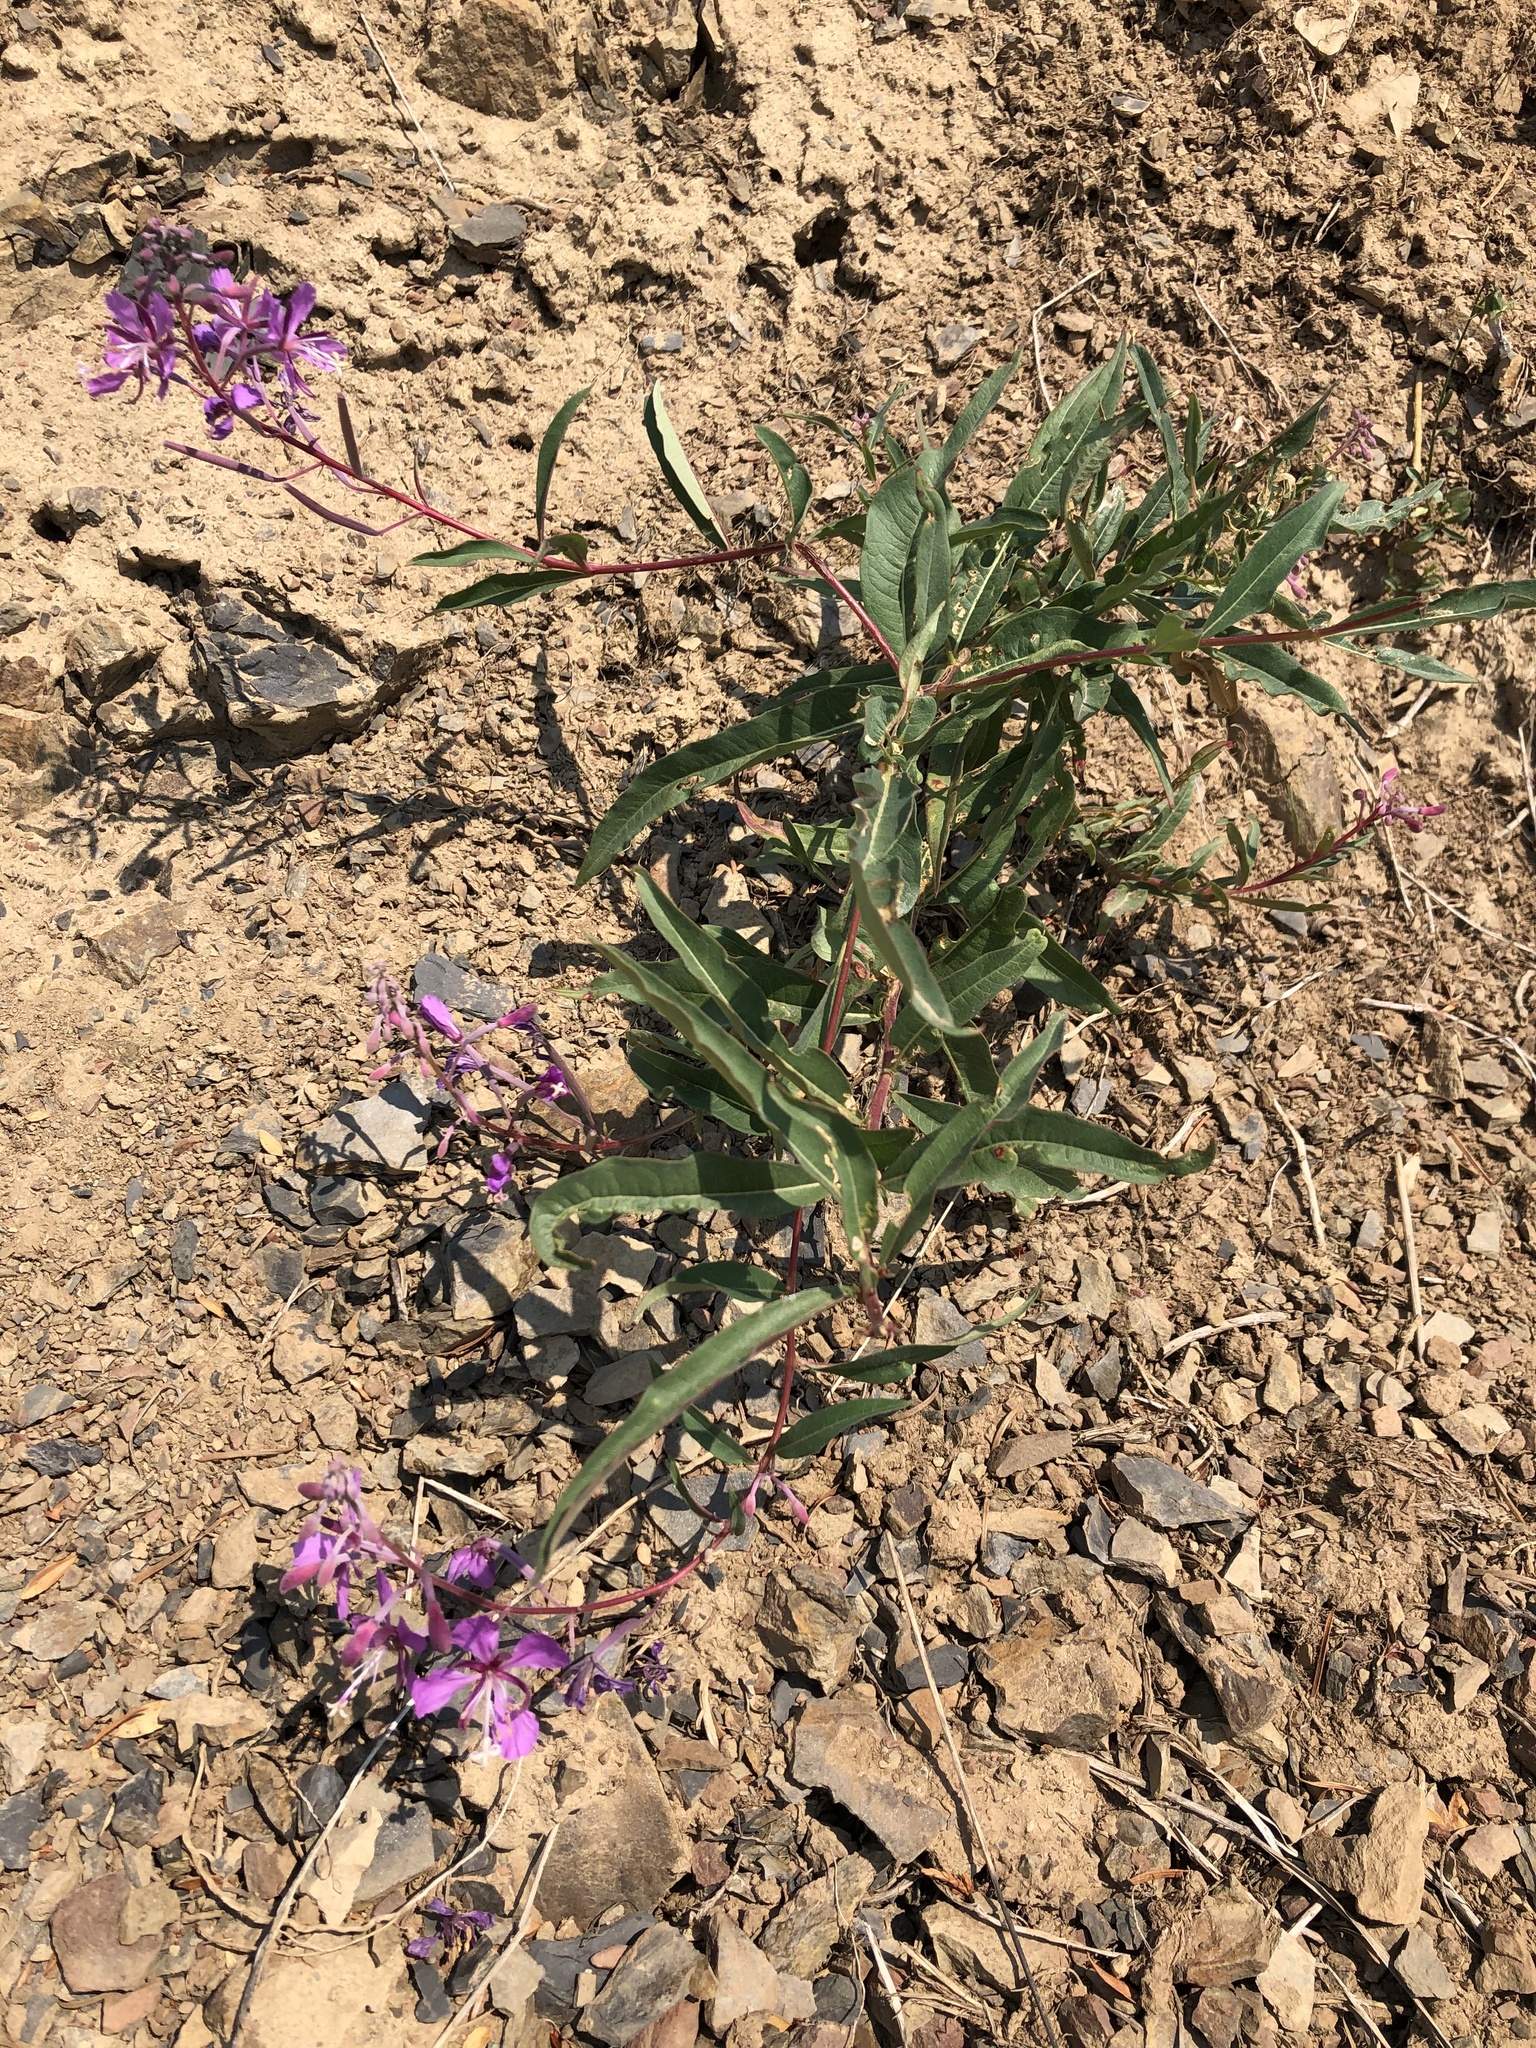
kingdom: Plantae
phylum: Tracheophyta
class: Magnoliopsida
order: Myrtales
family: Onagraceae
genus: Chamaenerion
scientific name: Chamaenerion angustifolium
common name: Fireweed
